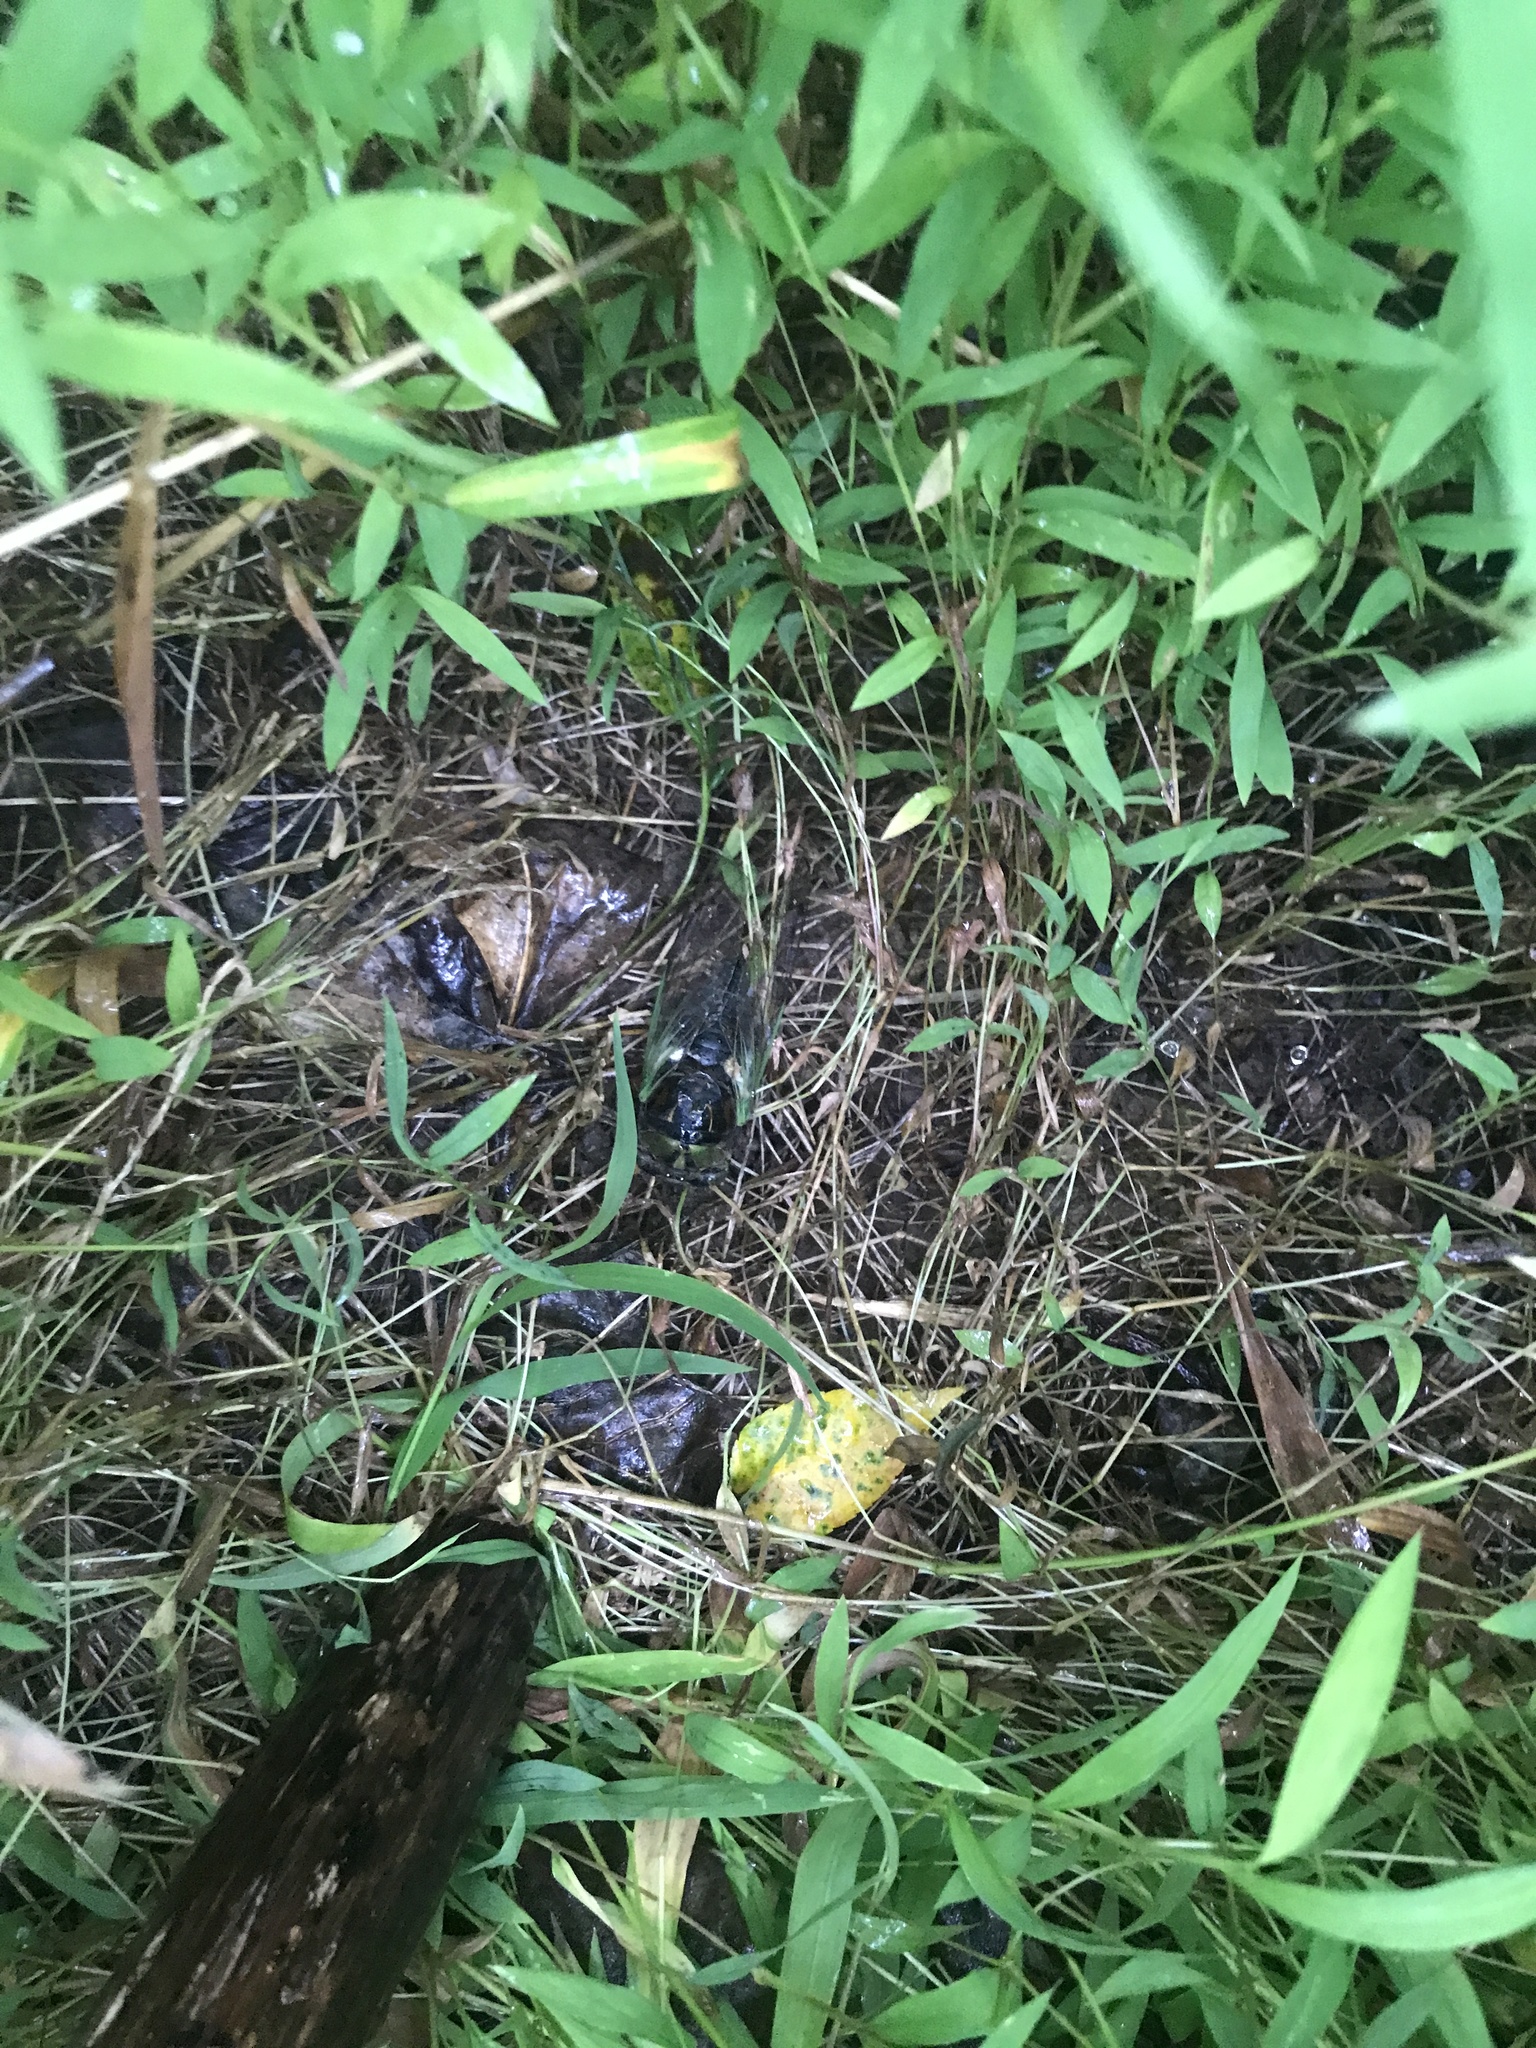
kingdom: Animalia
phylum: Arthropoda
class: Insecta
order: Hemiptera
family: Cicadidae
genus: Neotibicen
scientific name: Neotibicen tibicen
